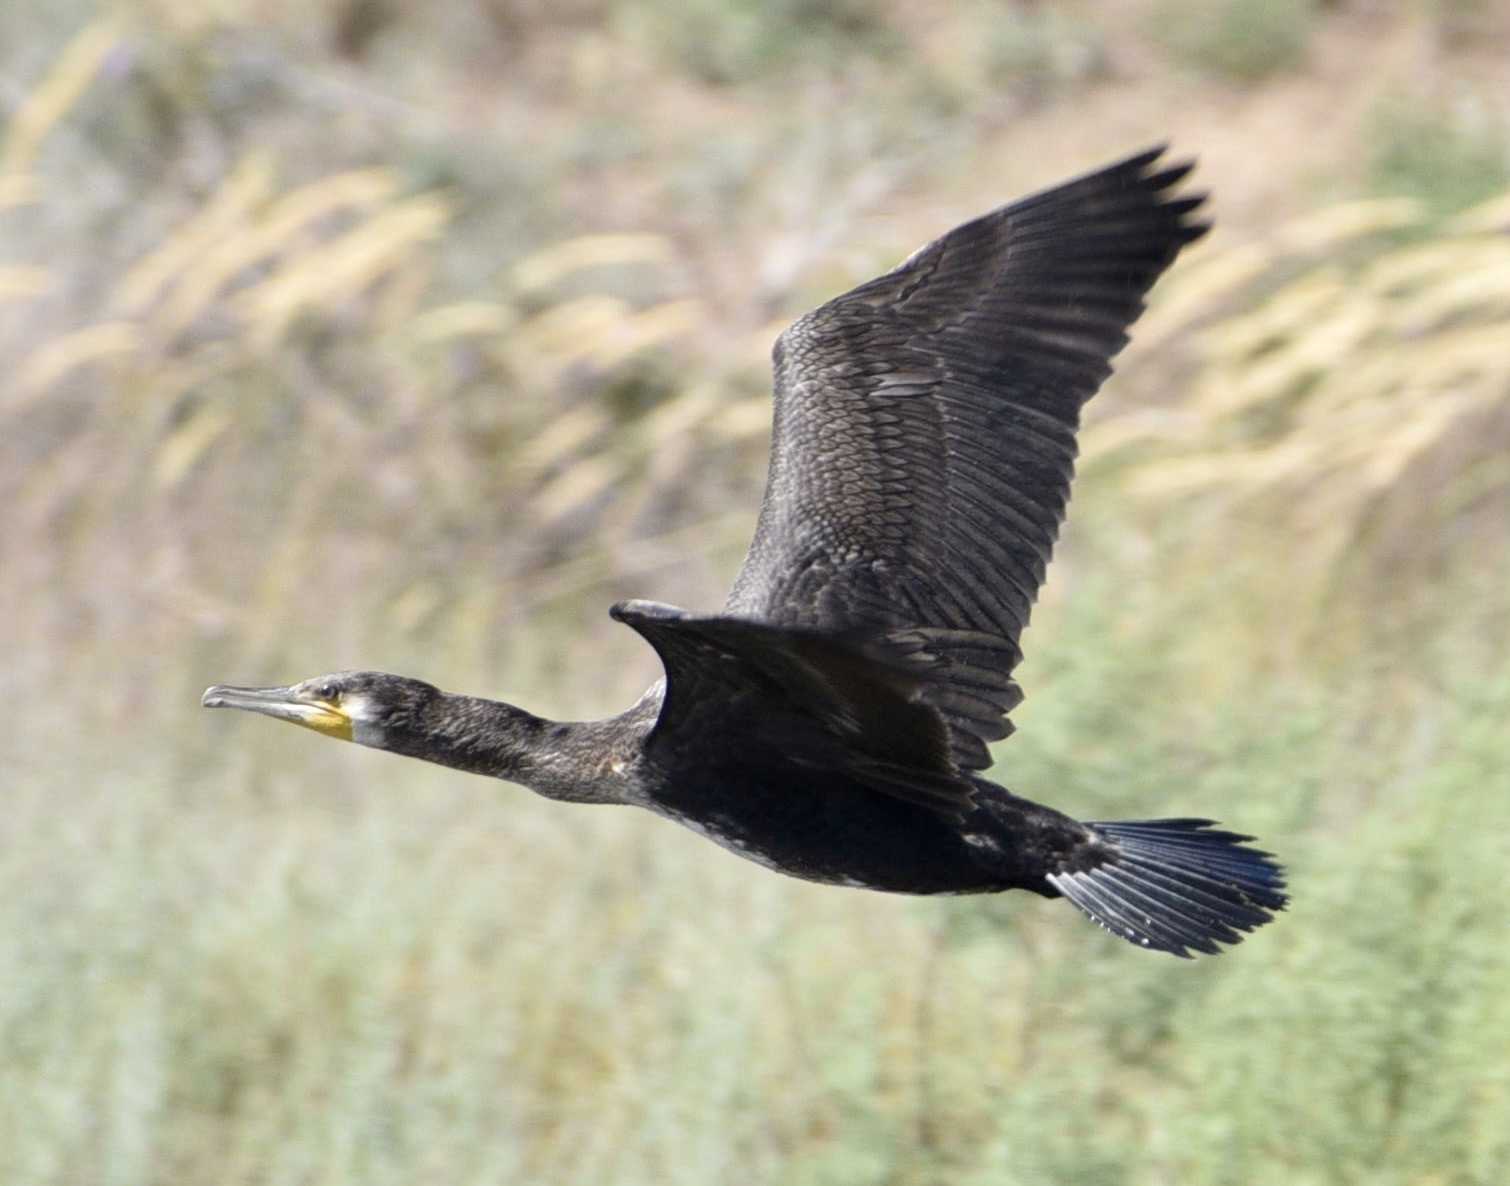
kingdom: Animalia
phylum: Chordata
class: Aves
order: Suliformes
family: Phalacrocoracidae
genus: Phalacrocorax
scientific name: Phalacrocorax carbo
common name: Great cormorant
